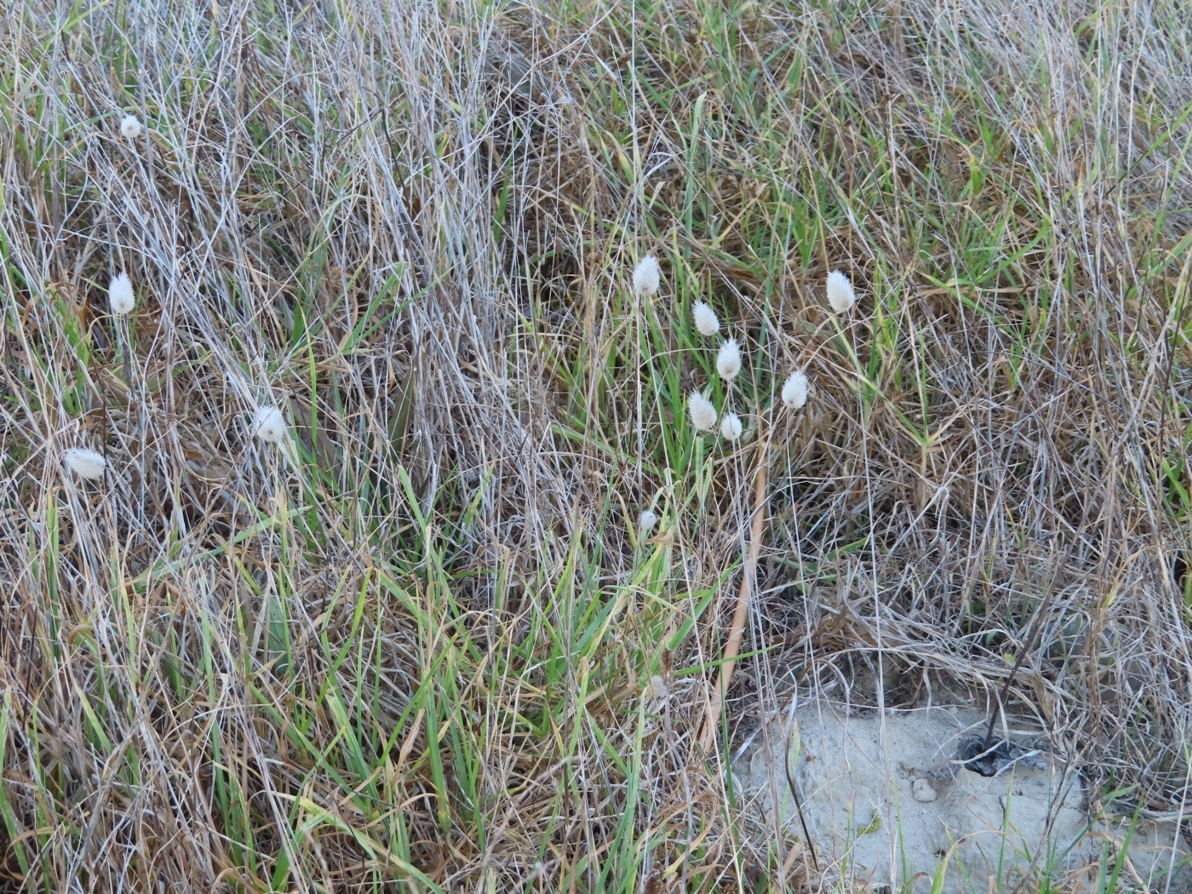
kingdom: Plantae
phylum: Tracheophyta
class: Liliopsida
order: Poales
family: Poaceae
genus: Lagurus
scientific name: Lagurus ovatus
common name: Hare's-tail
